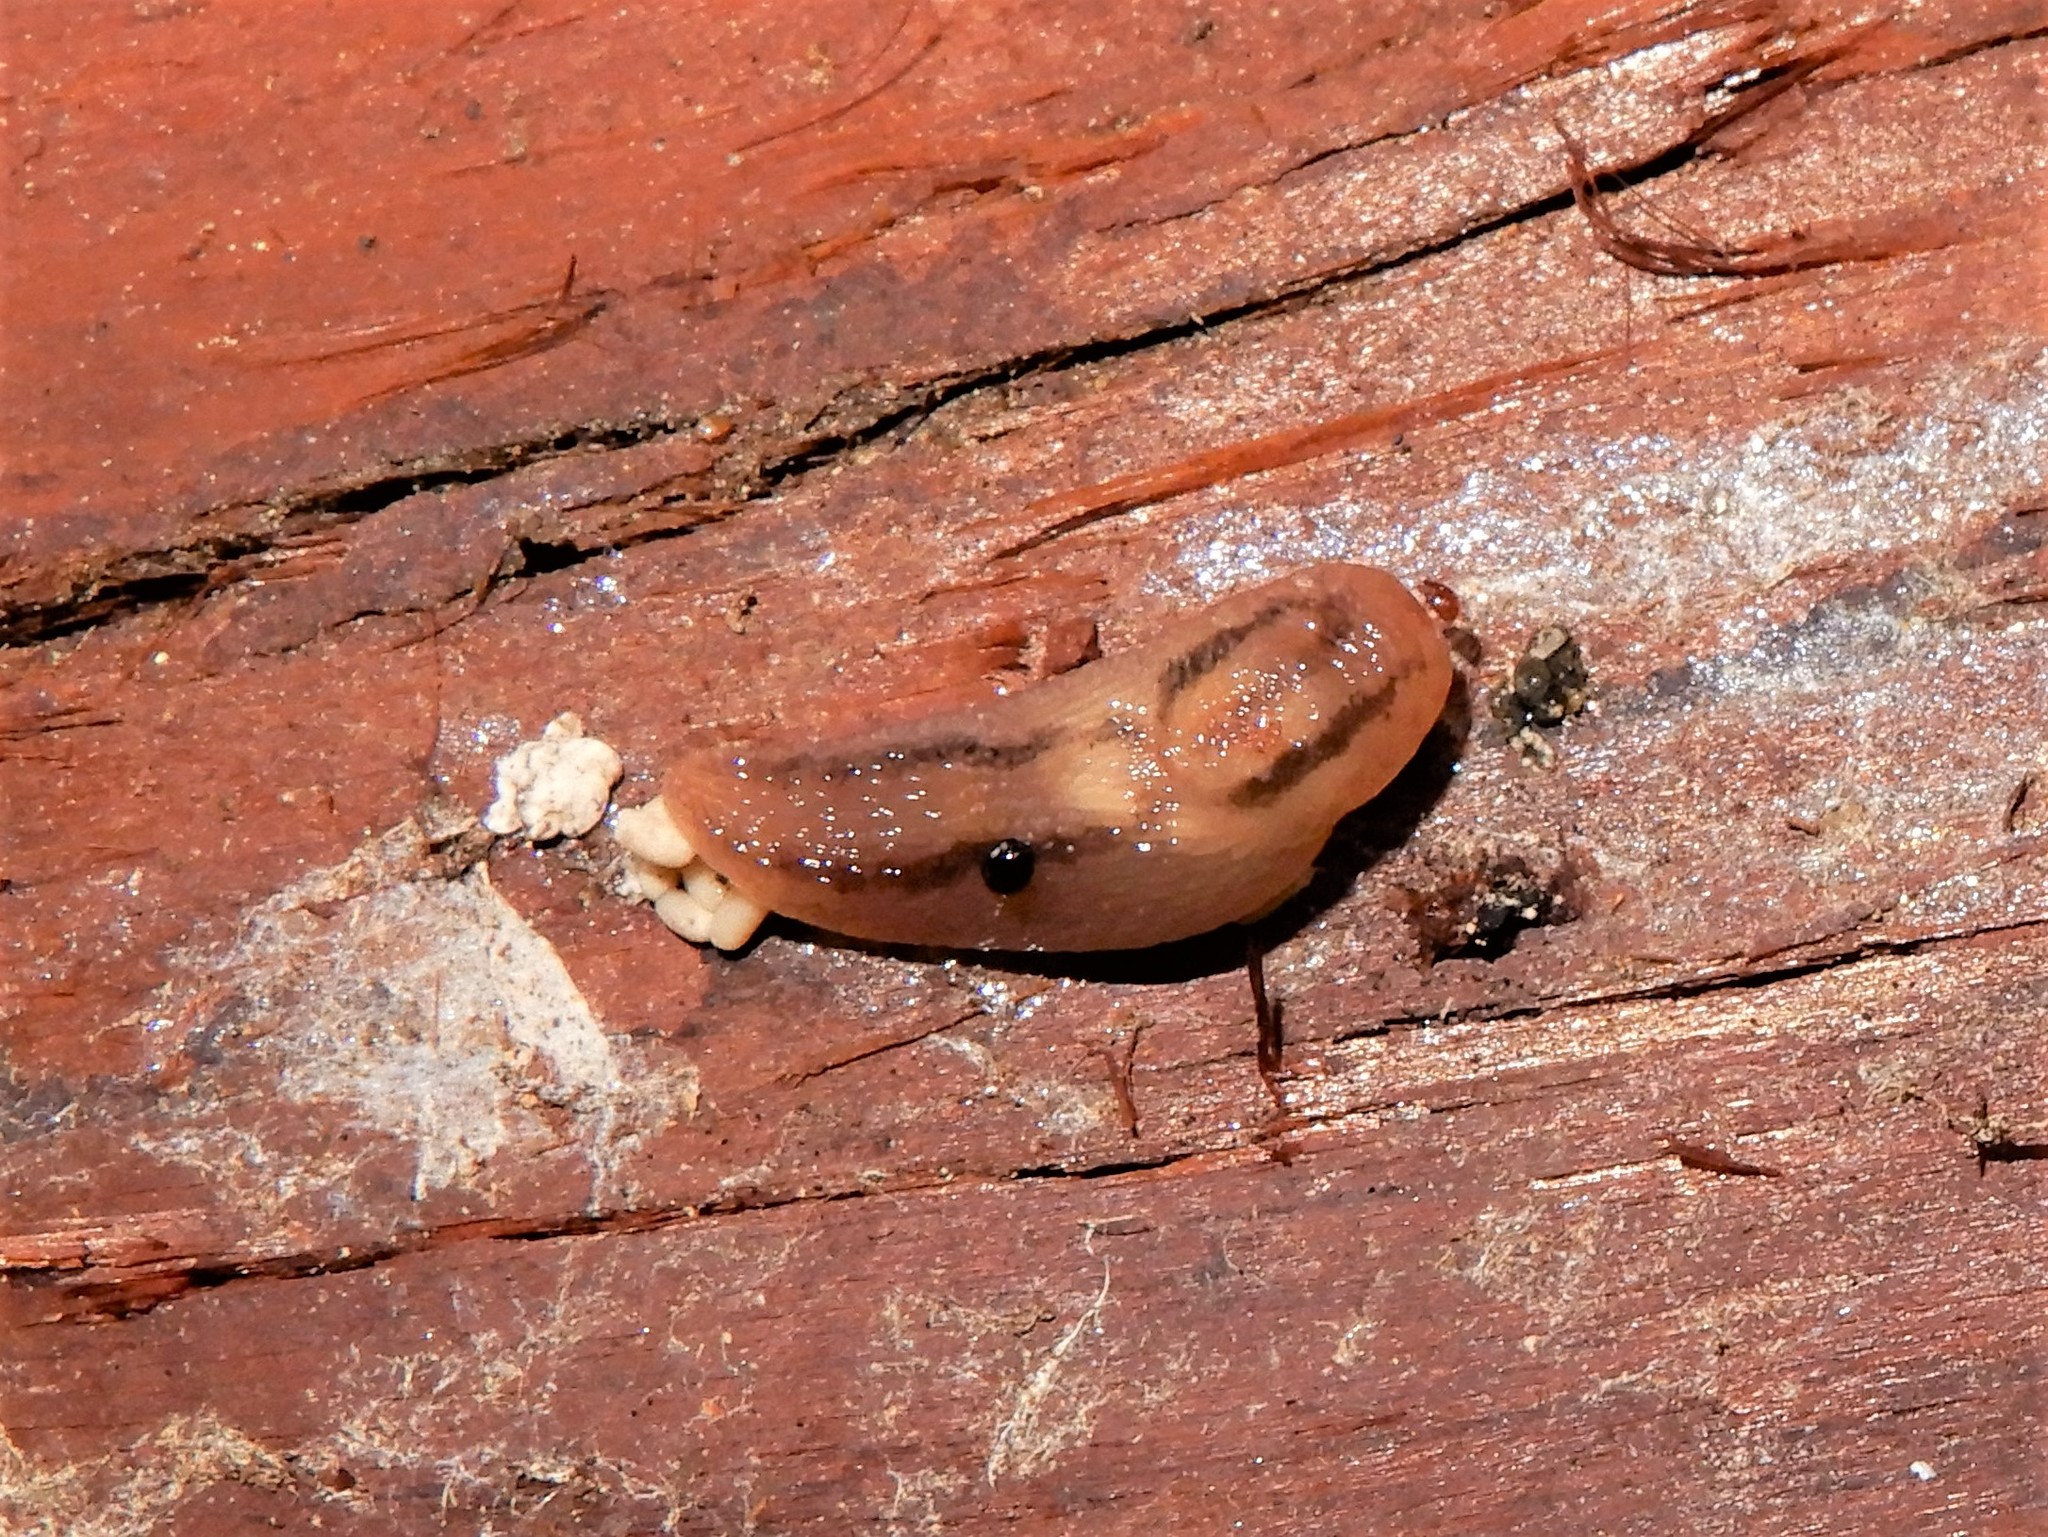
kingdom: Animalia
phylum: Mollusca
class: Gastropoda
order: Stylommatophora
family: Limacidae
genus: Ambigolimax
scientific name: Ambigolimax
